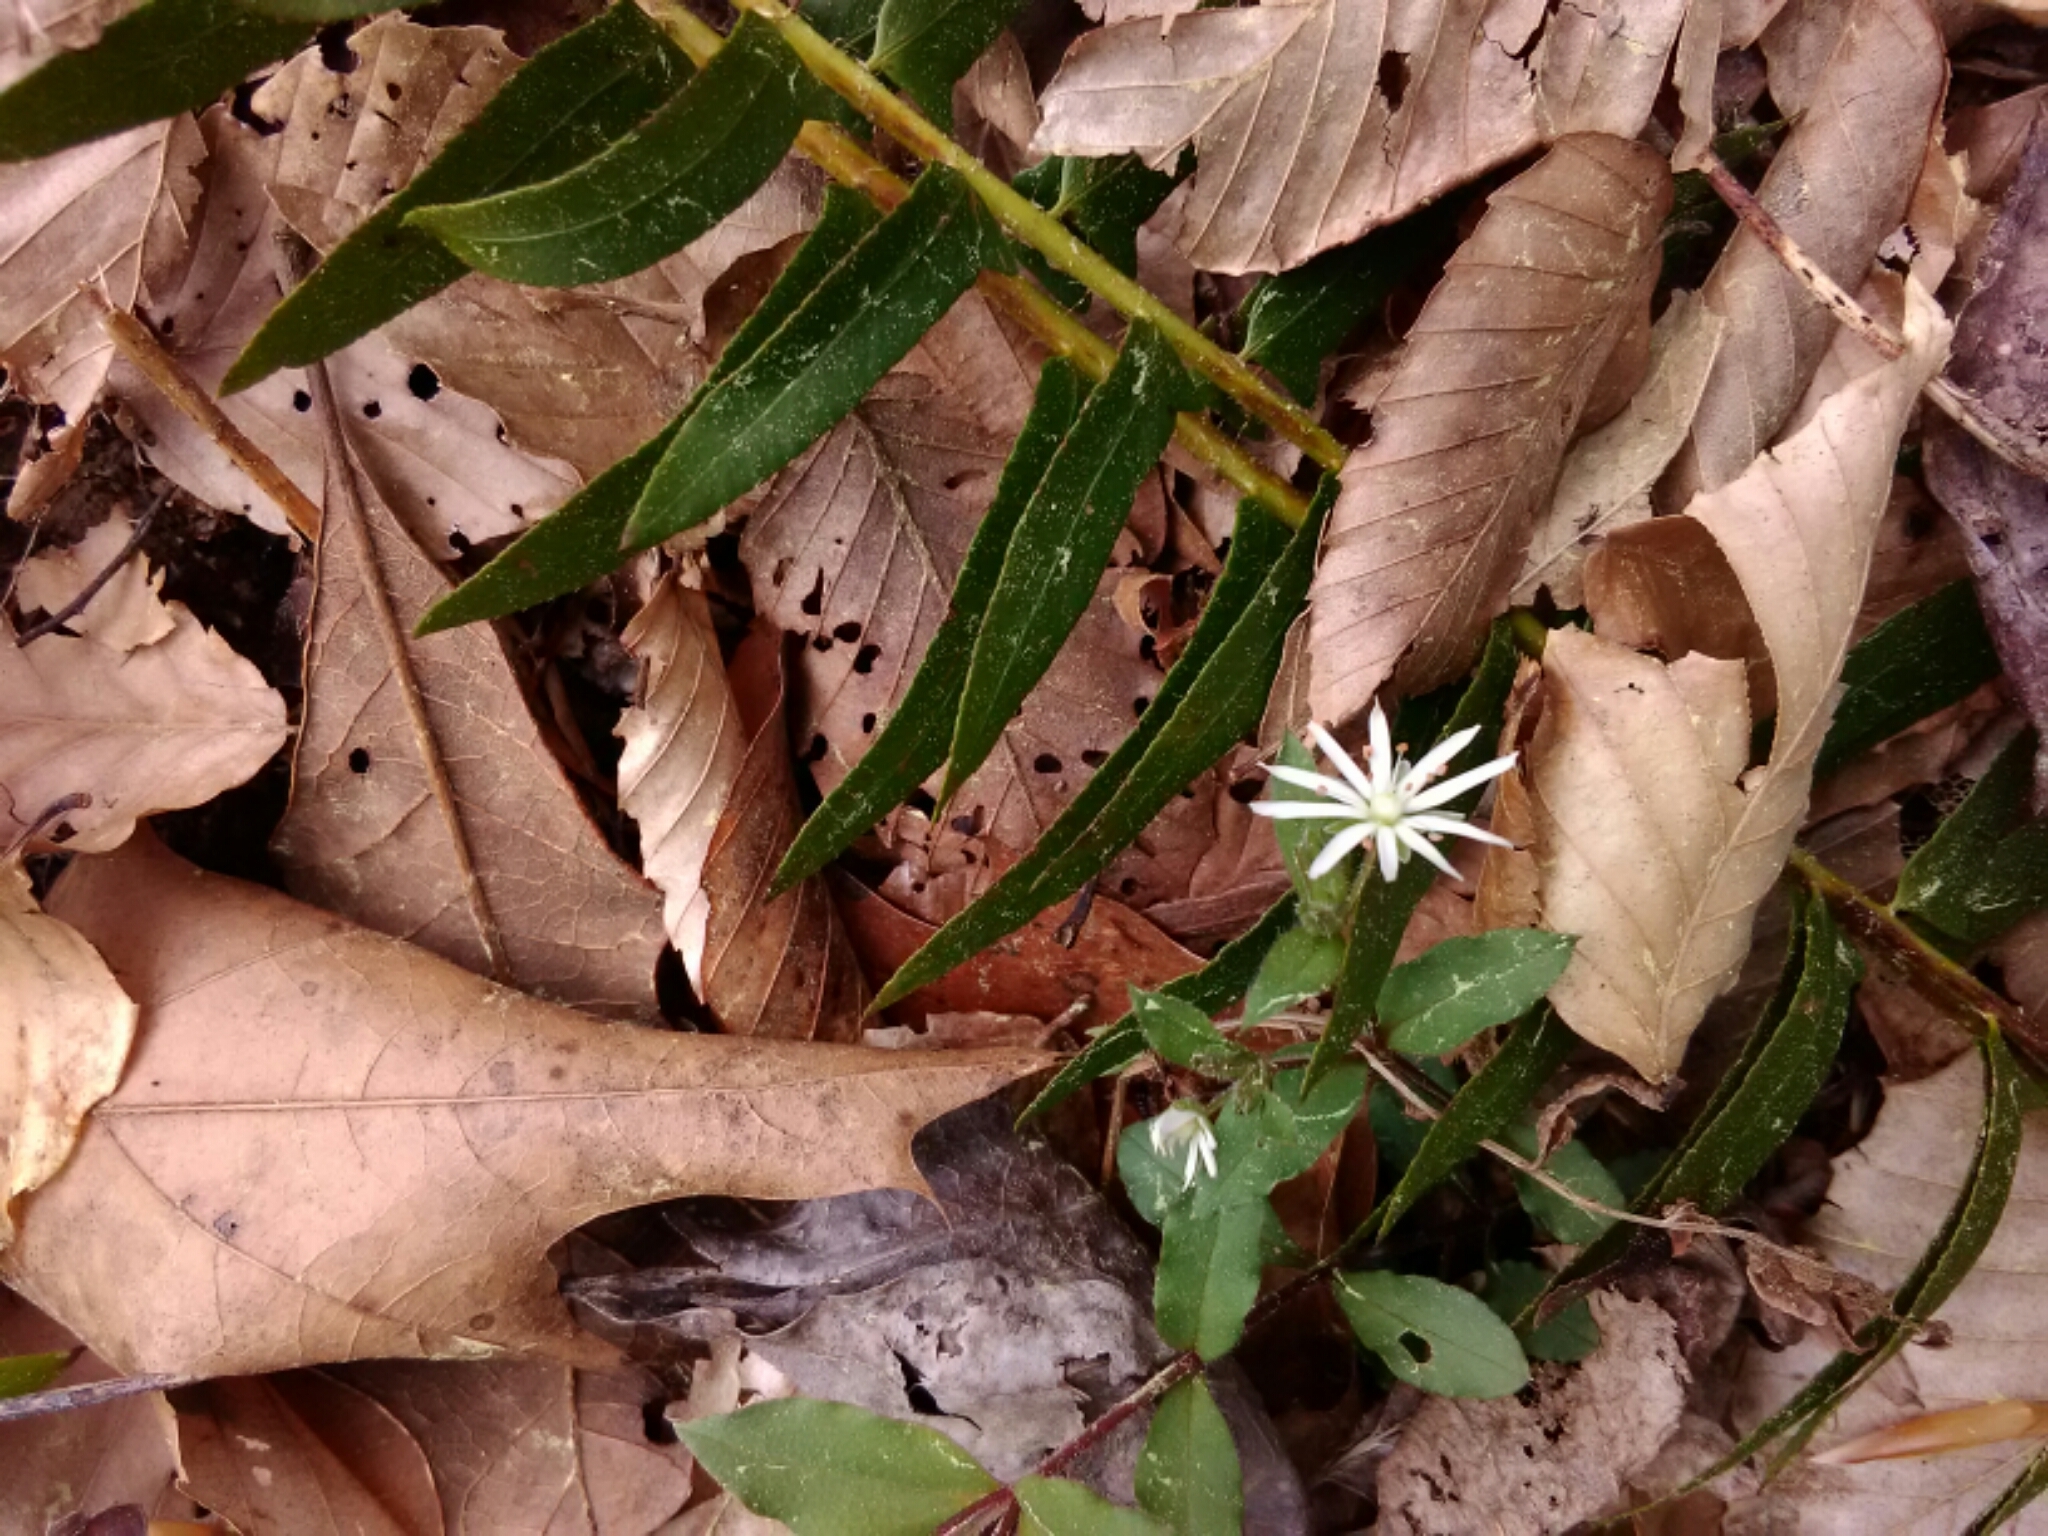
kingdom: Plantae
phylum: Tracheophyta
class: Magnoliopsida
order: Caryophyllales
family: Caryophyllaceae
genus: Stellaria
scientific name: Stellaria pubera
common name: Star chickweed
